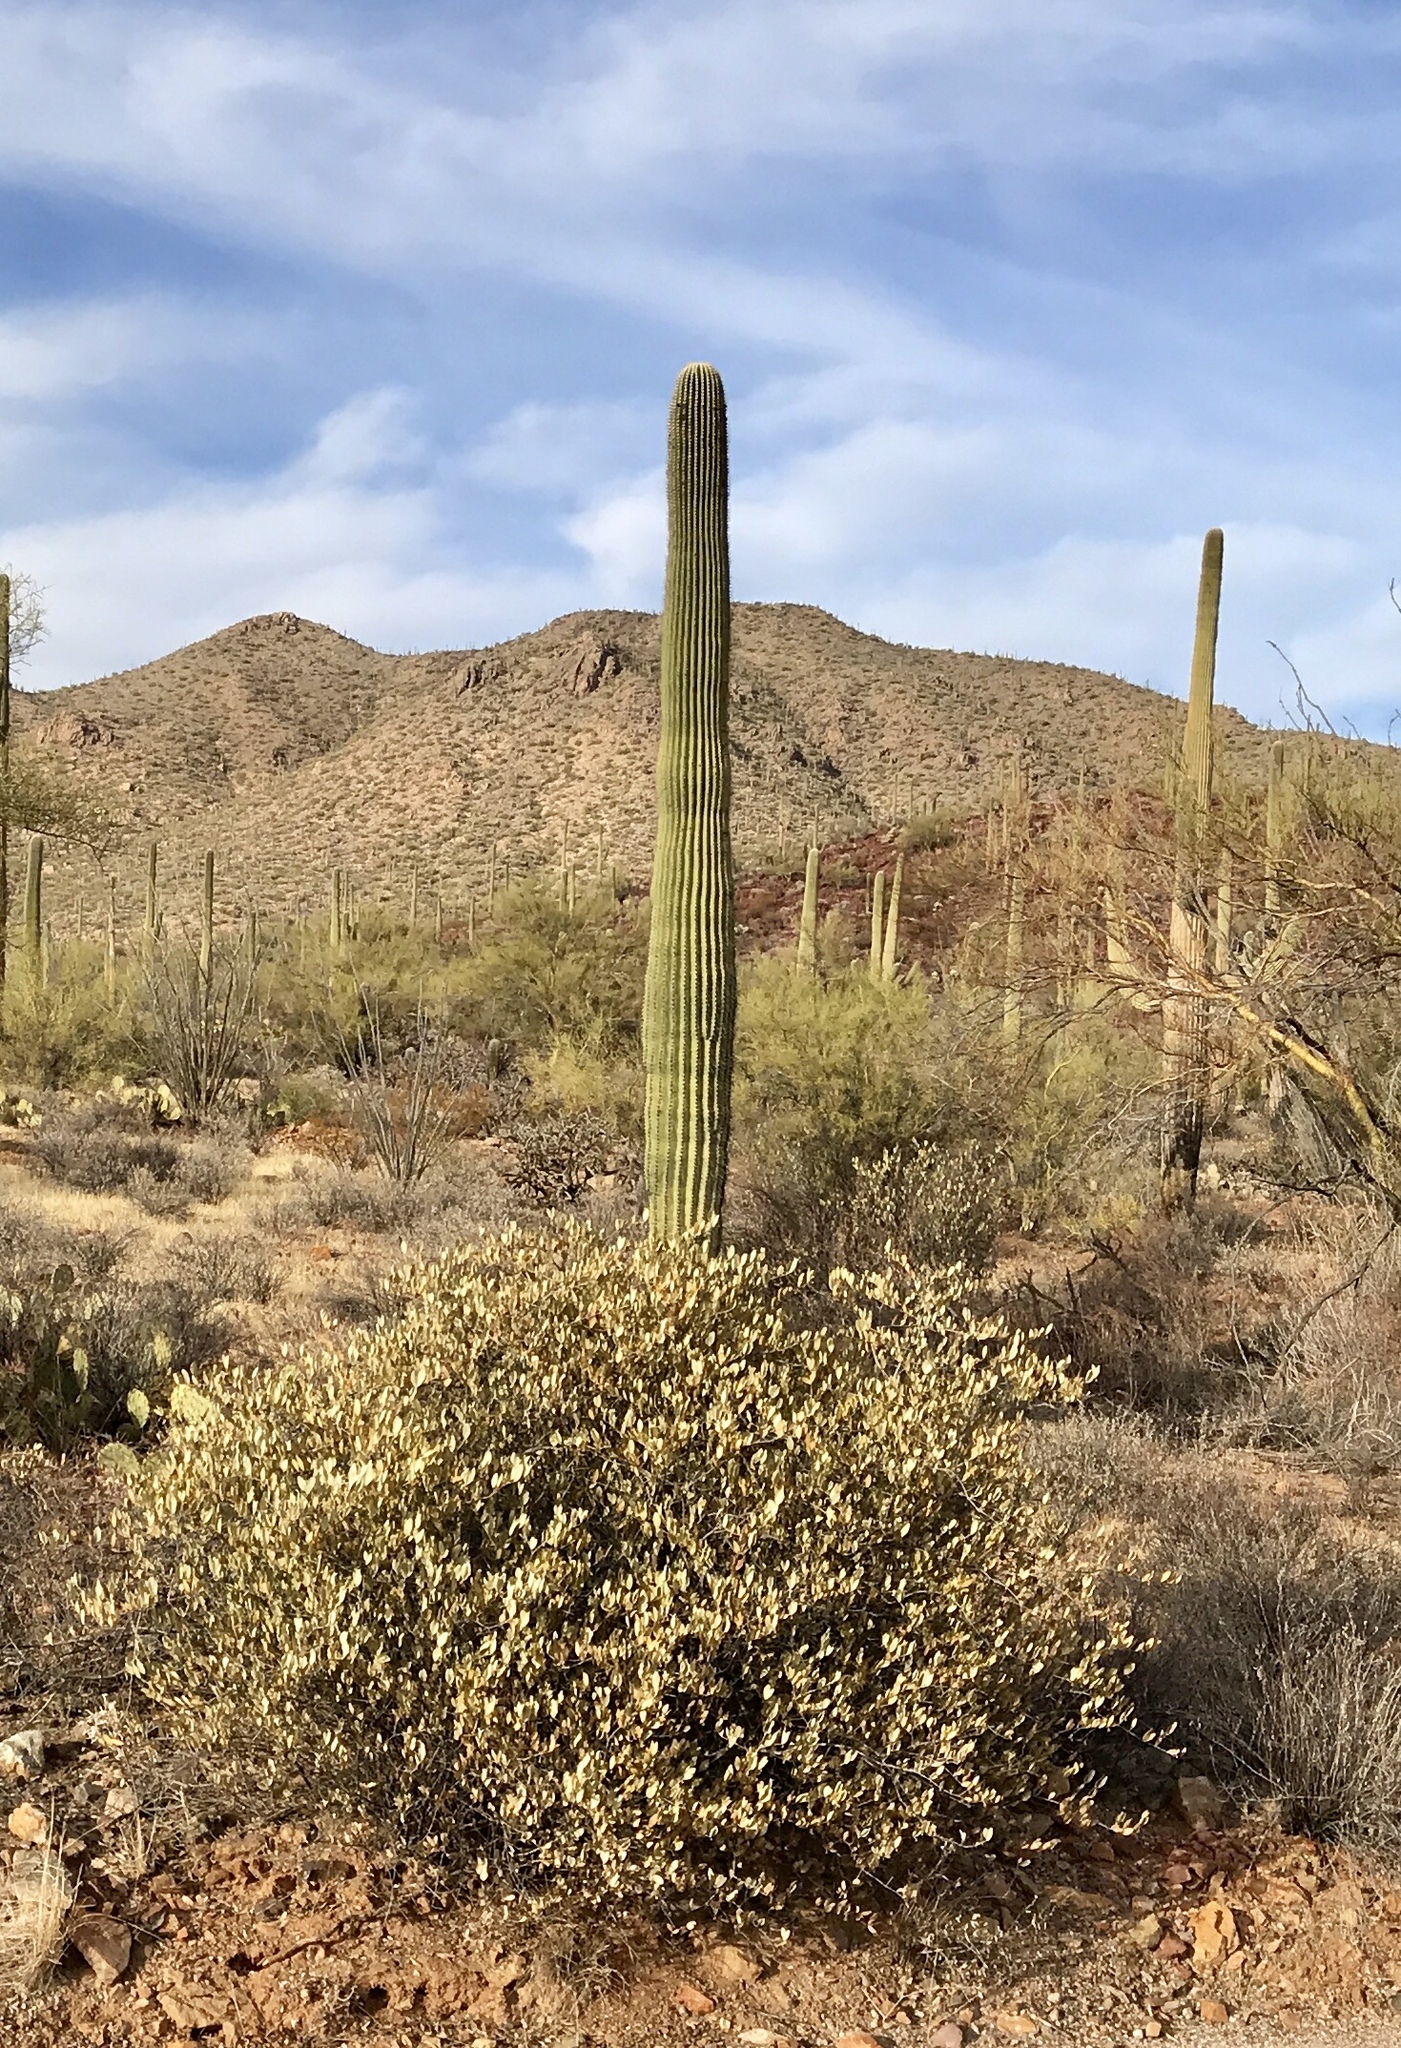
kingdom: Plantae
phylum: Tracheophyta
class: Magnoliopsida
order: Caryophyllales
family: Cactaceae
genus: Carnegiea
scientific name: Carnegiea gigantea
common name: Saguaro
